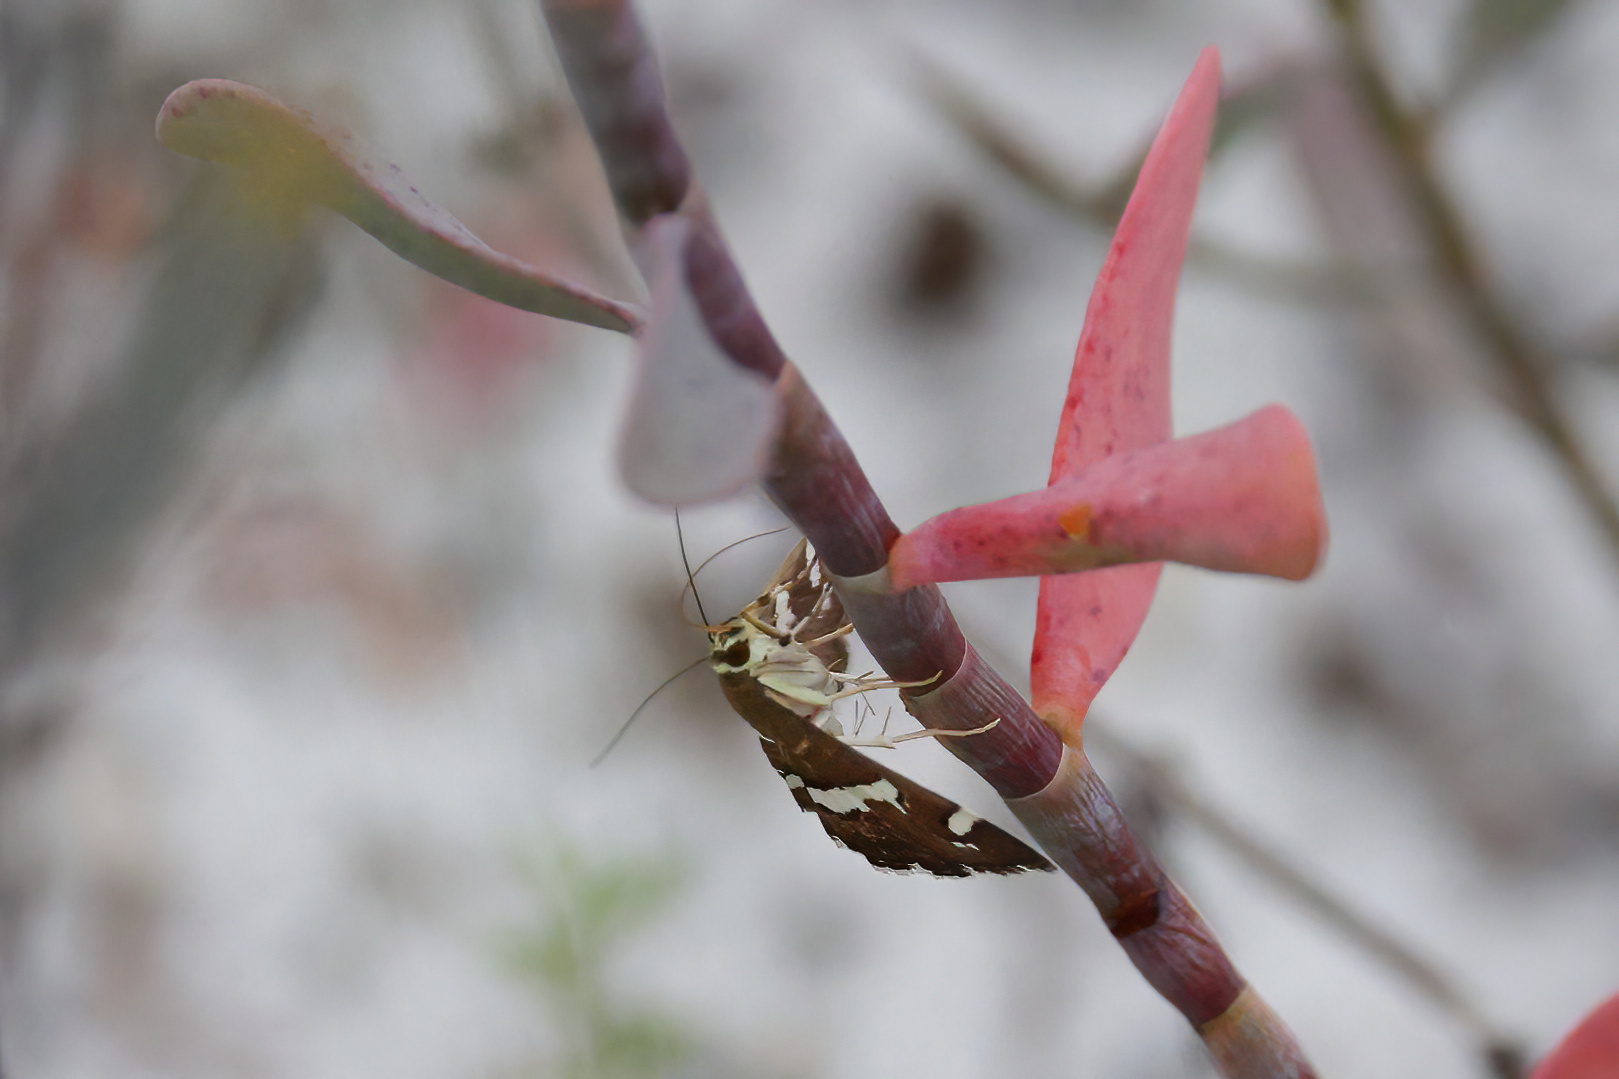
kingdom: Animalia
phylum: Arthropoda
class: Insecta
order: Lepidoptera
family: Crambidae
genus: Spoladea
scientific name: Spoladea recurvalis
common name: Beet webworm moth
